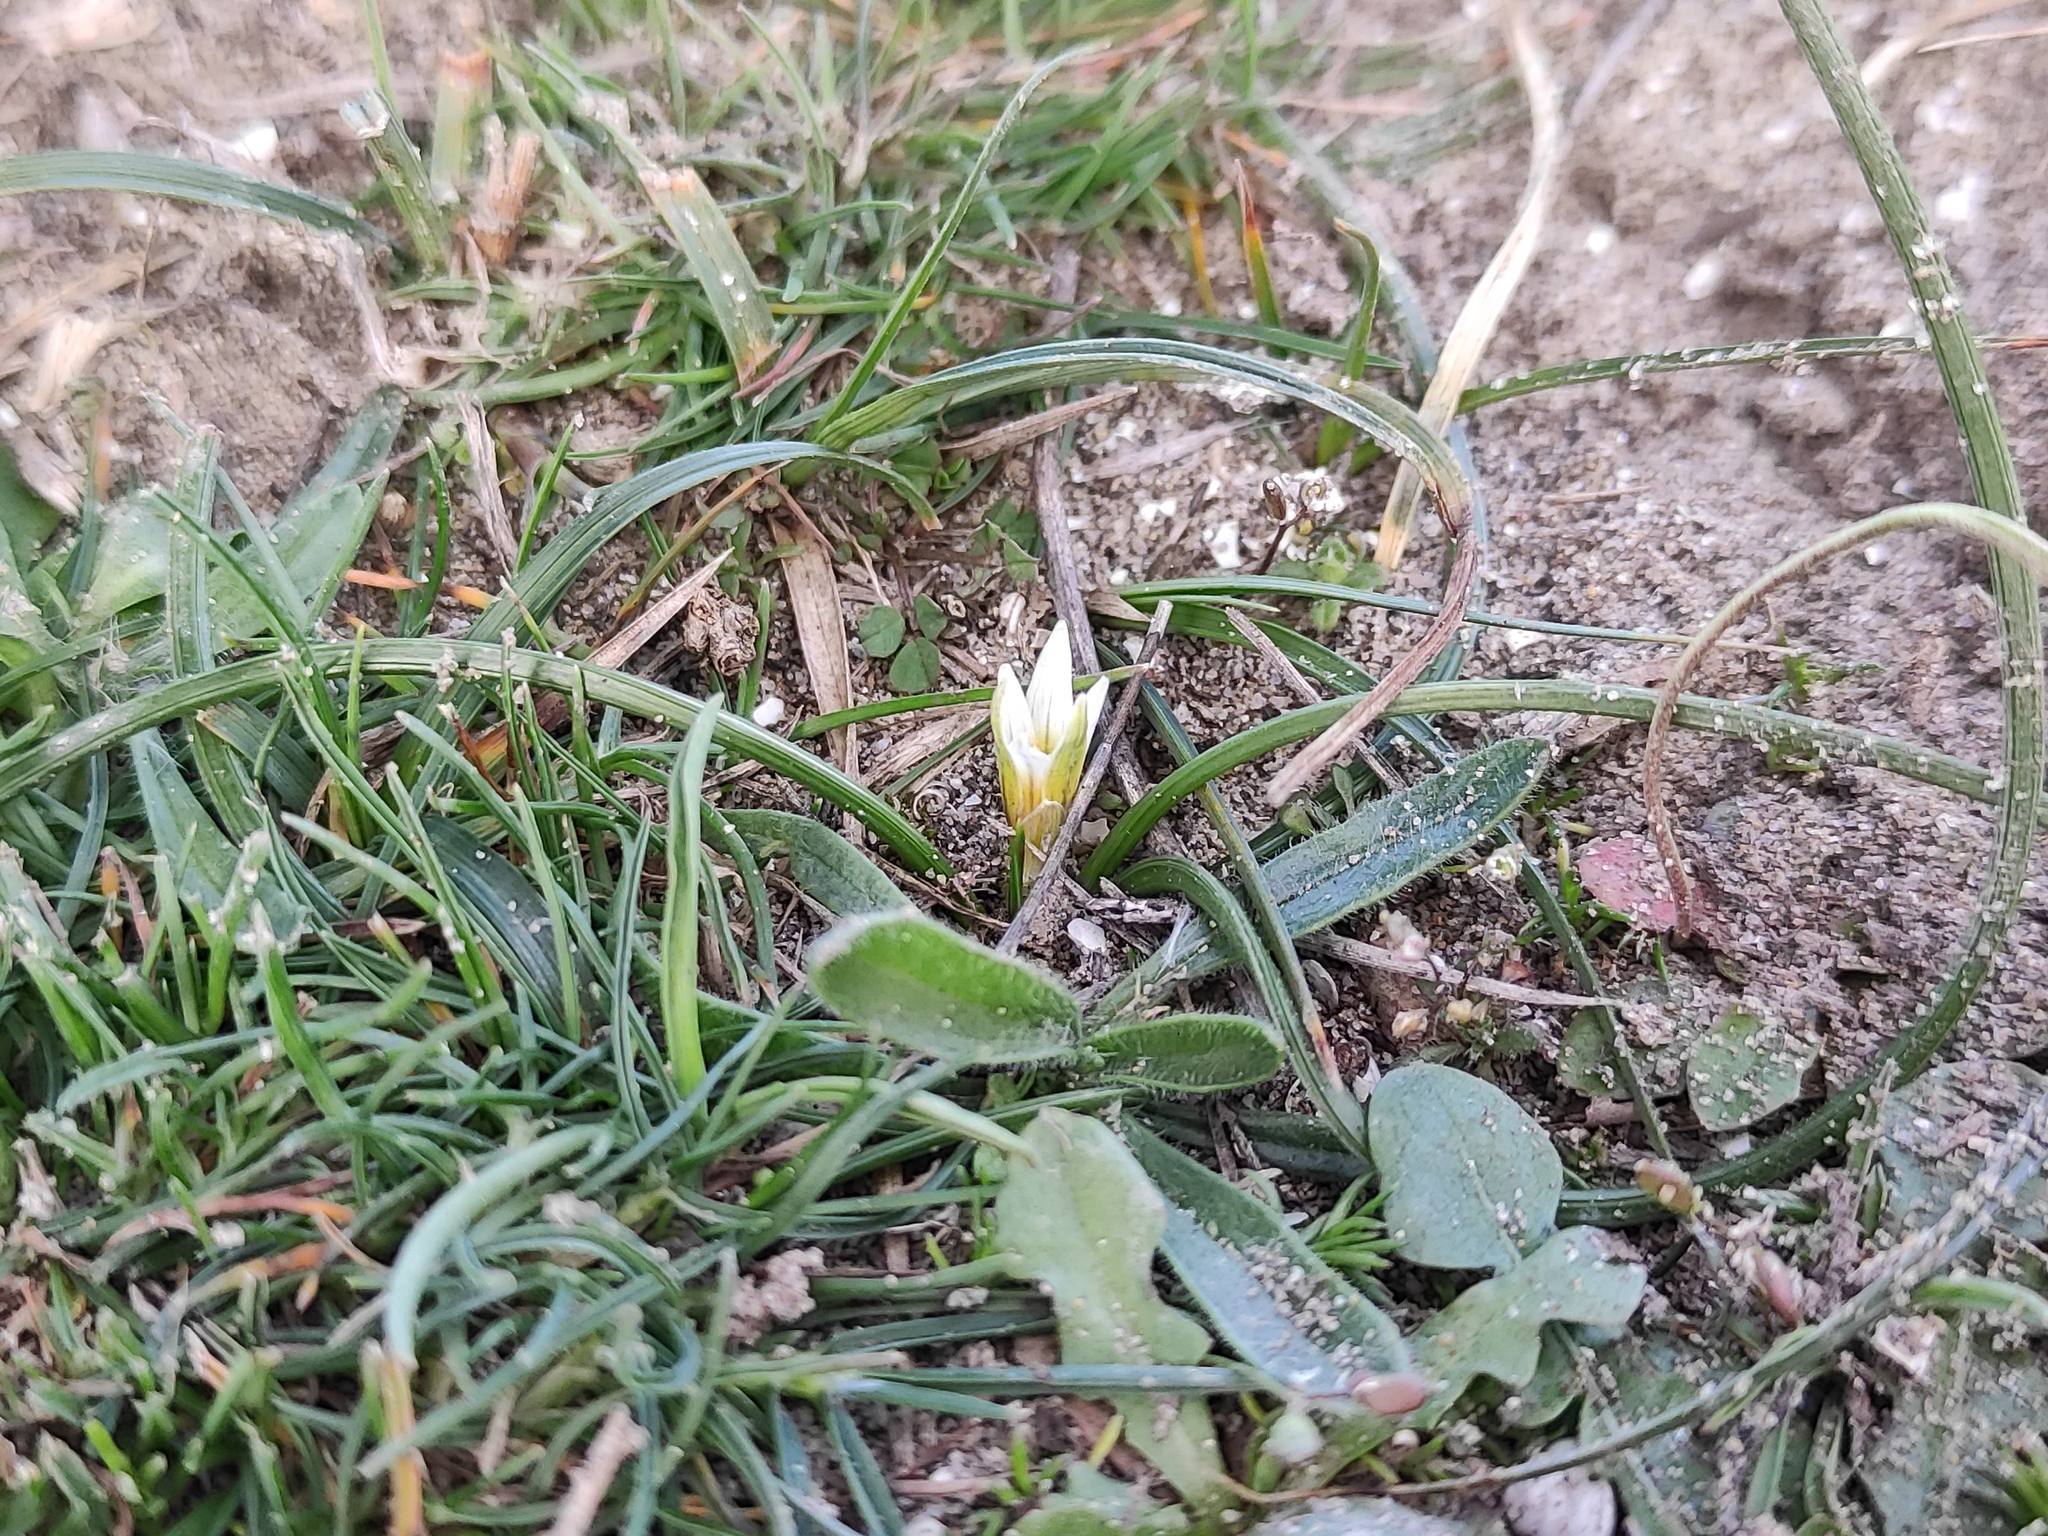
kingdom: Plantae
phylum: Tracheophyta
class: Liliopsida
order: Asparagales
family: Iridaceae
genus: Romulea
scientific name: Romulea columnae
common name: Sand-crocus
